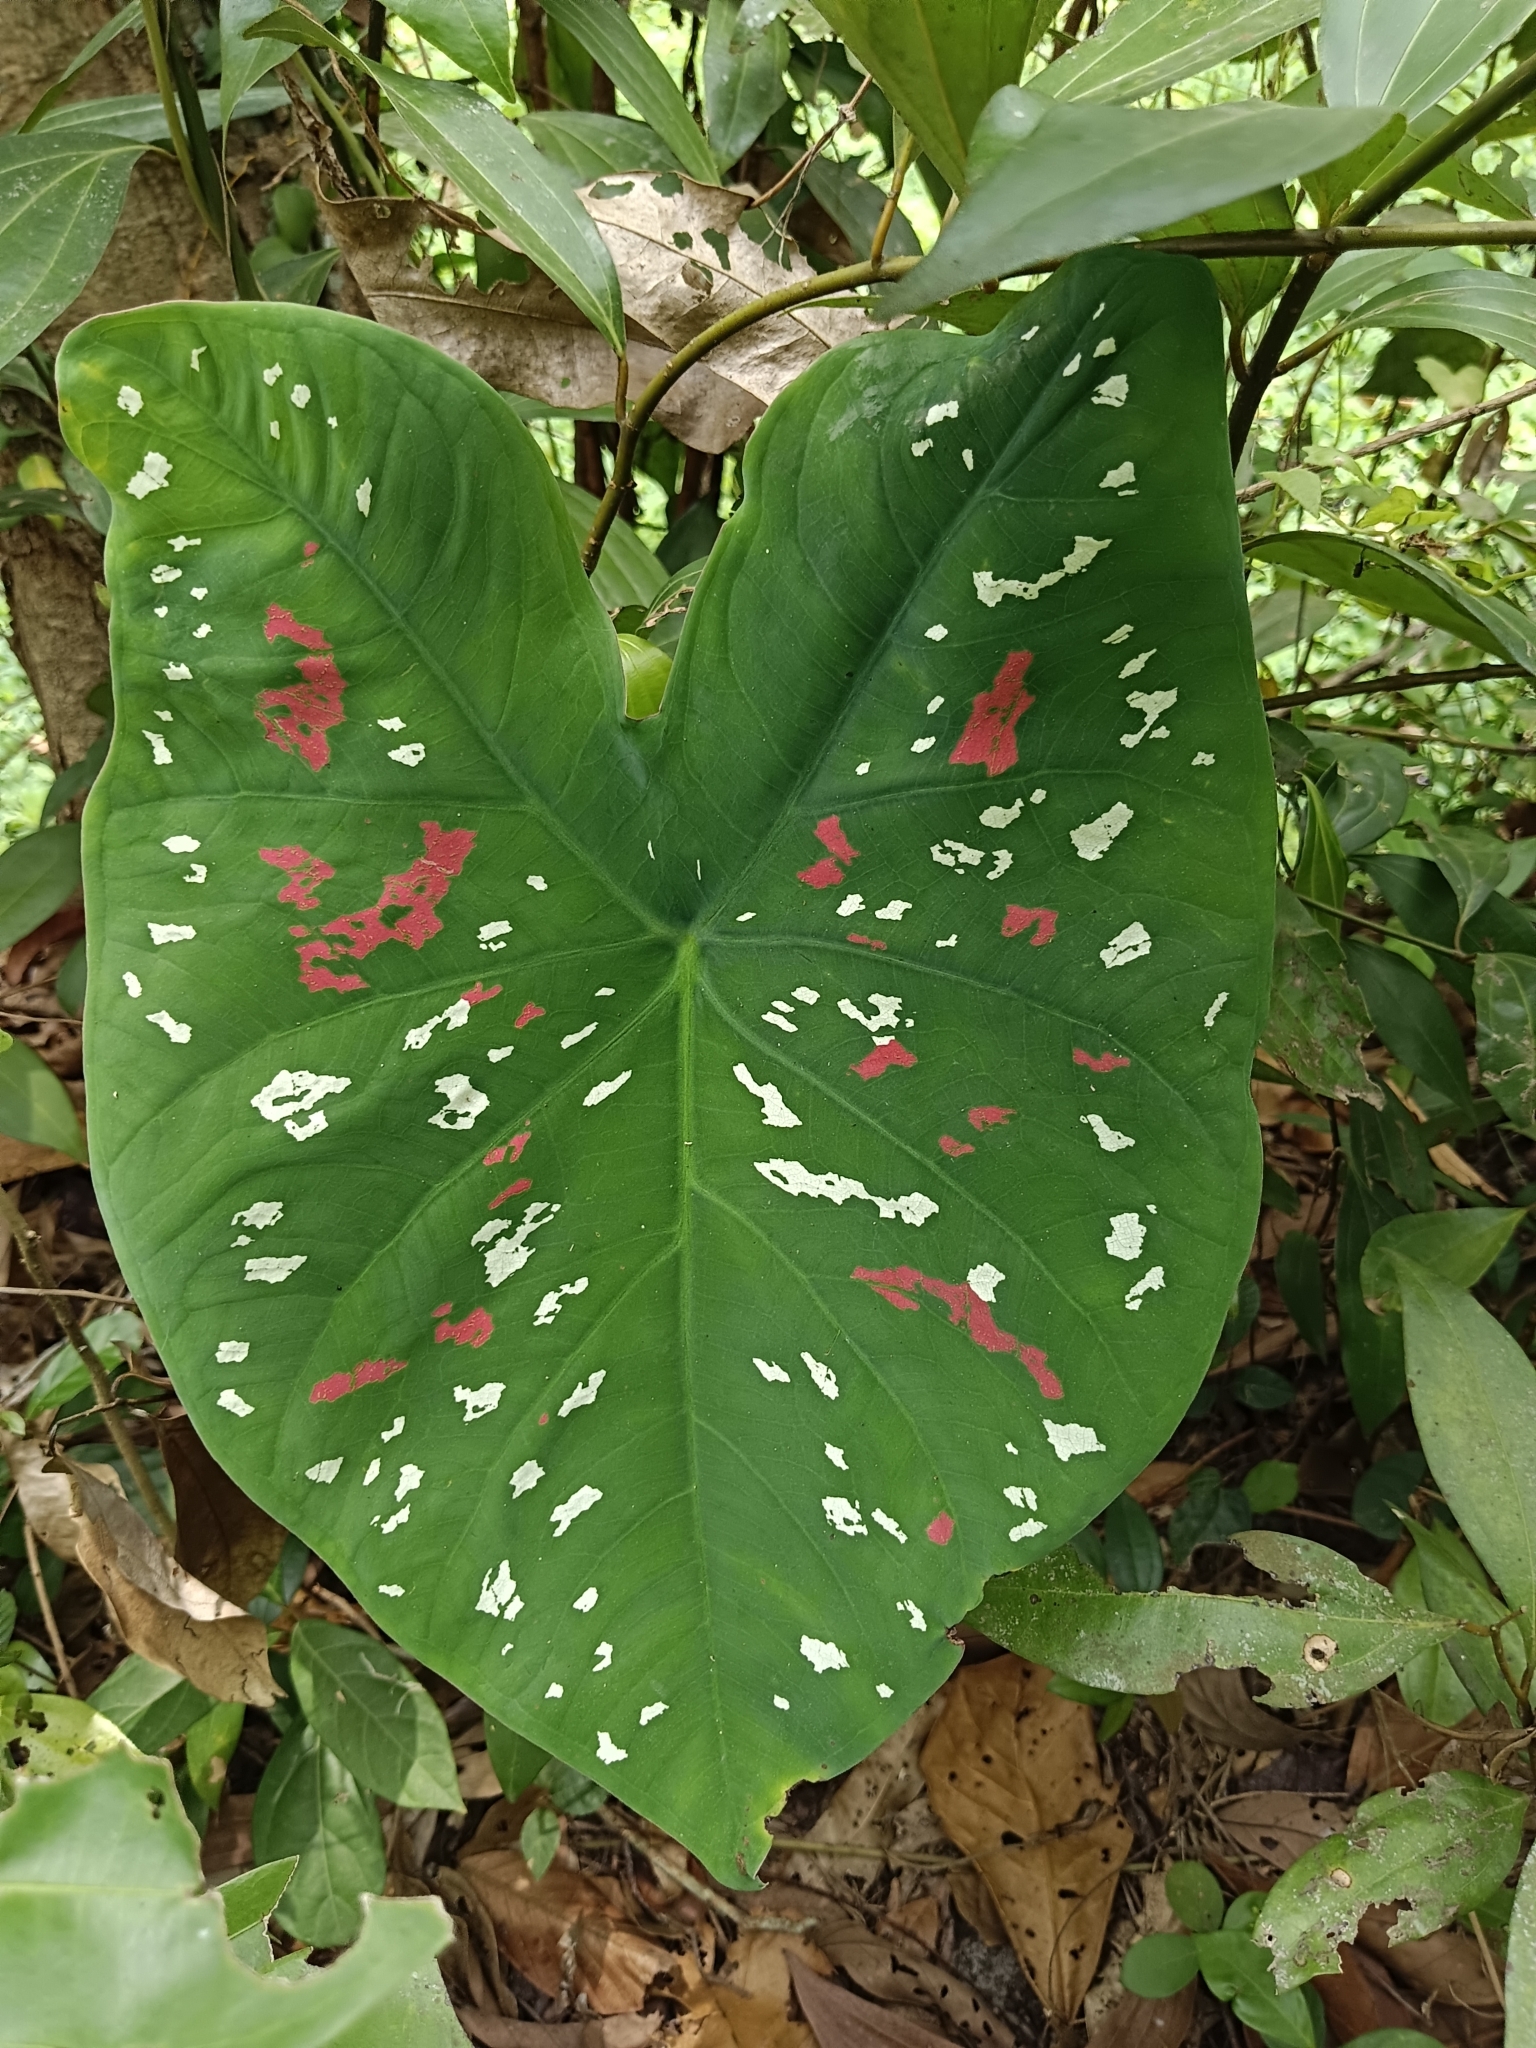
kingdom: Plantae
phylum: Tracheophyta
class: Liliopsida
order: Alismatales
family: Araceae
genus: Caladium
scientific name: Caladium bicolor
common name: Artist's pallet
